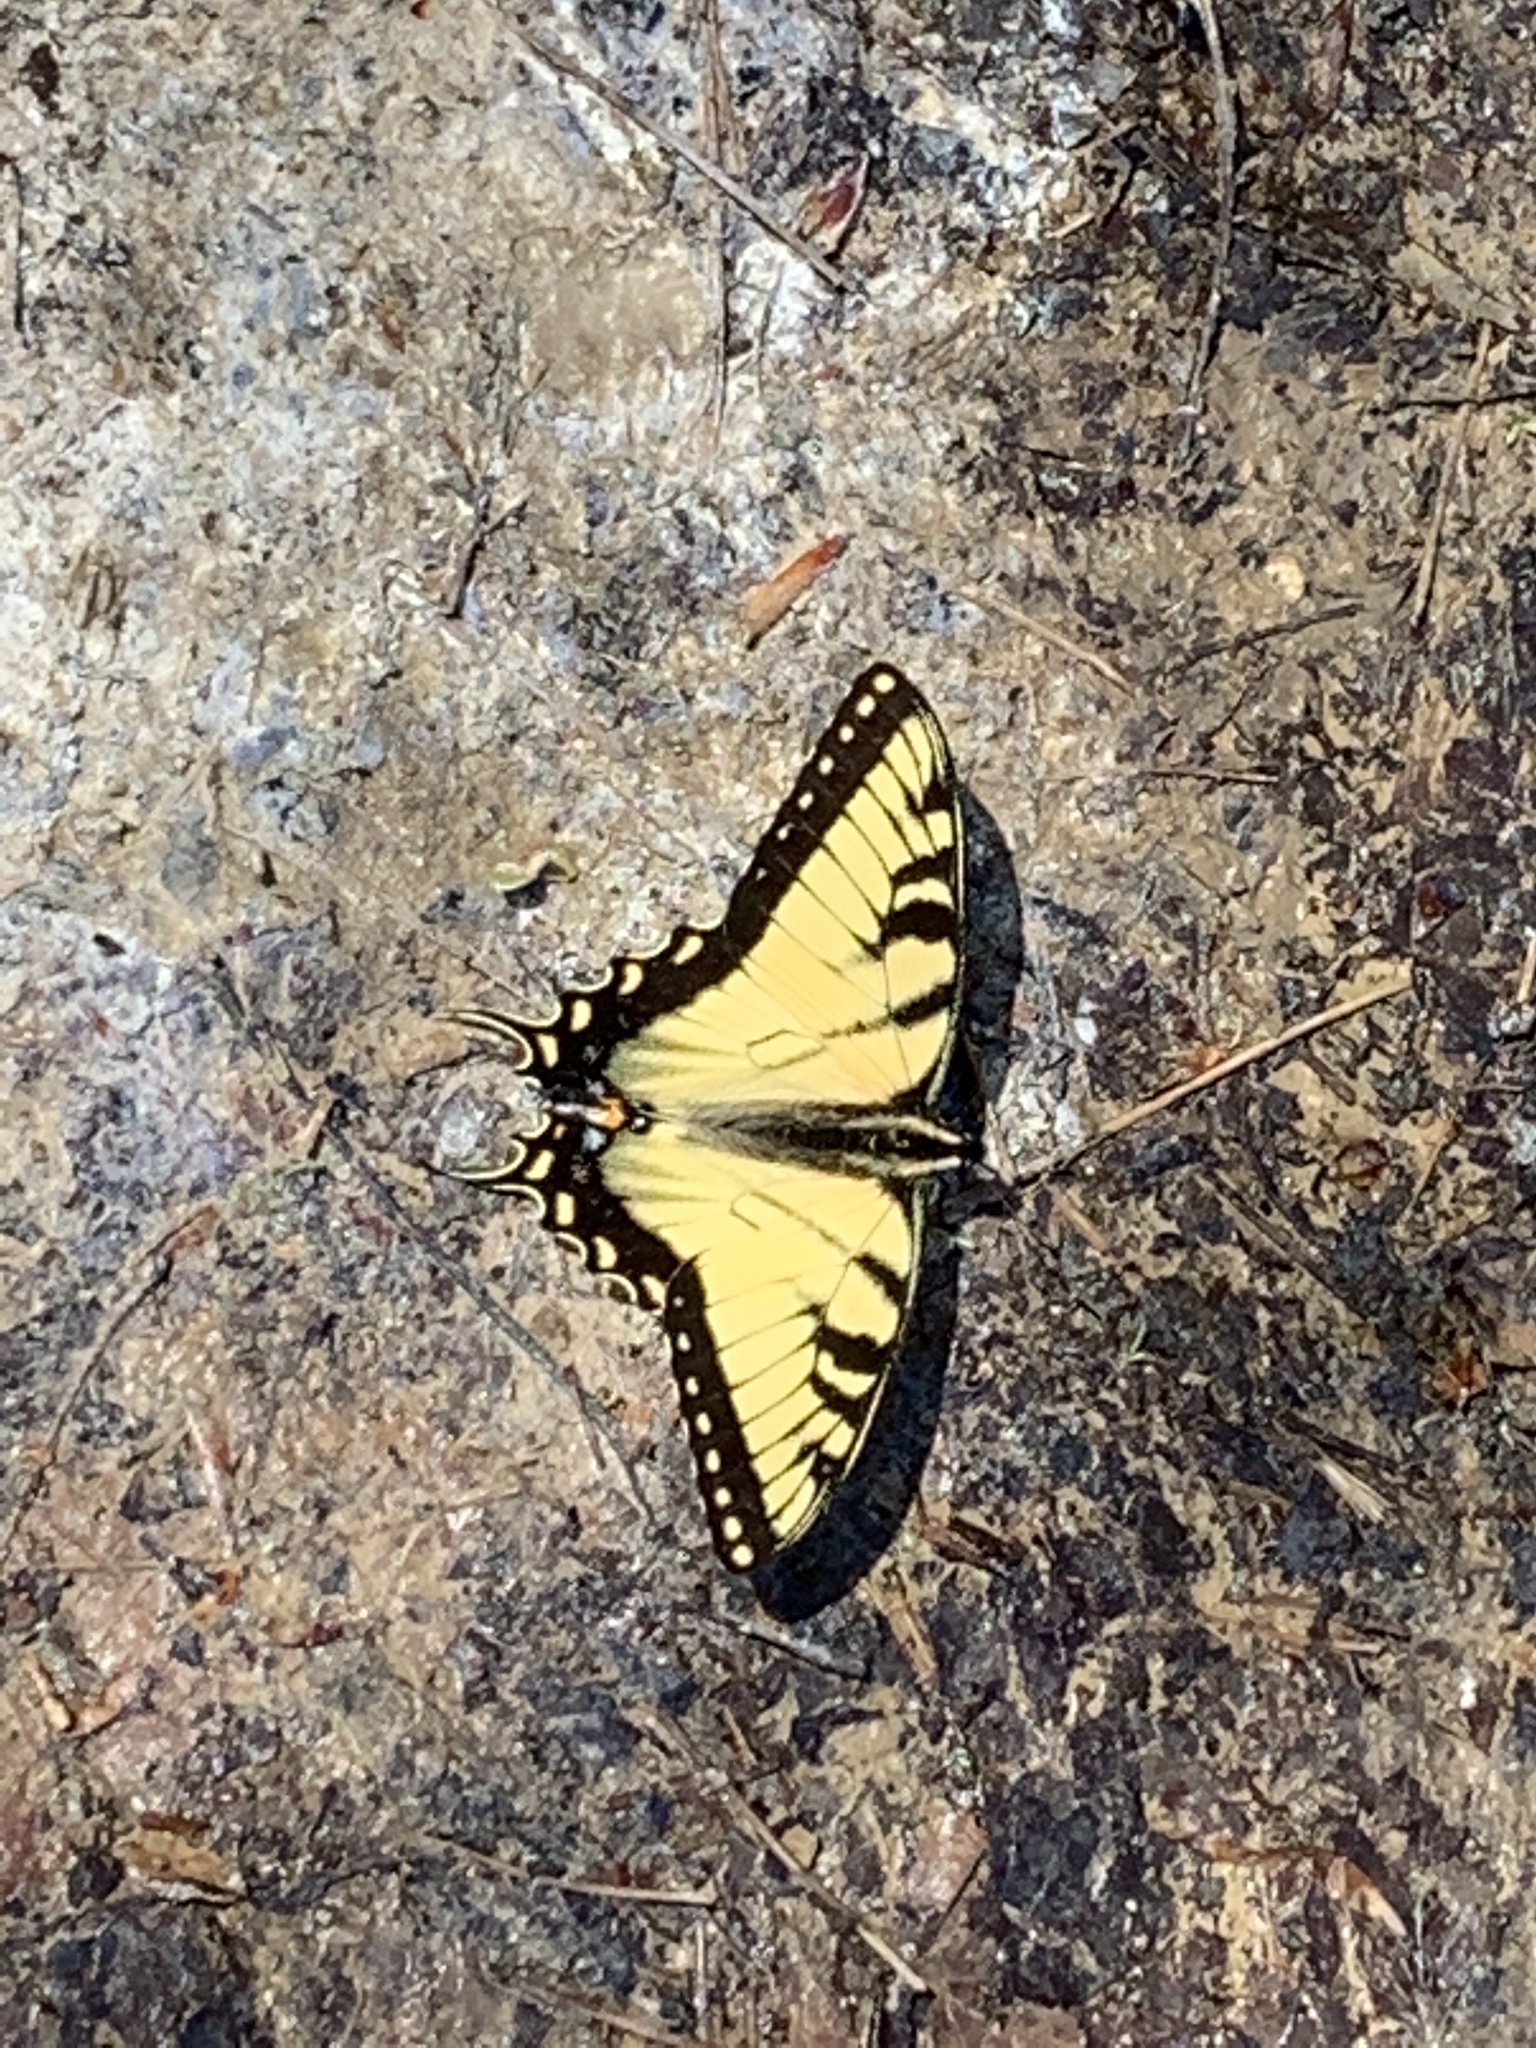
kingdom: Animalia
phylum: Arthropoda
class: Insecta
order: Lepidoptera
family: Papilionidae
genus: Papilio
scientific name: Papilio glaucus
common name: Tiger swallowtail
